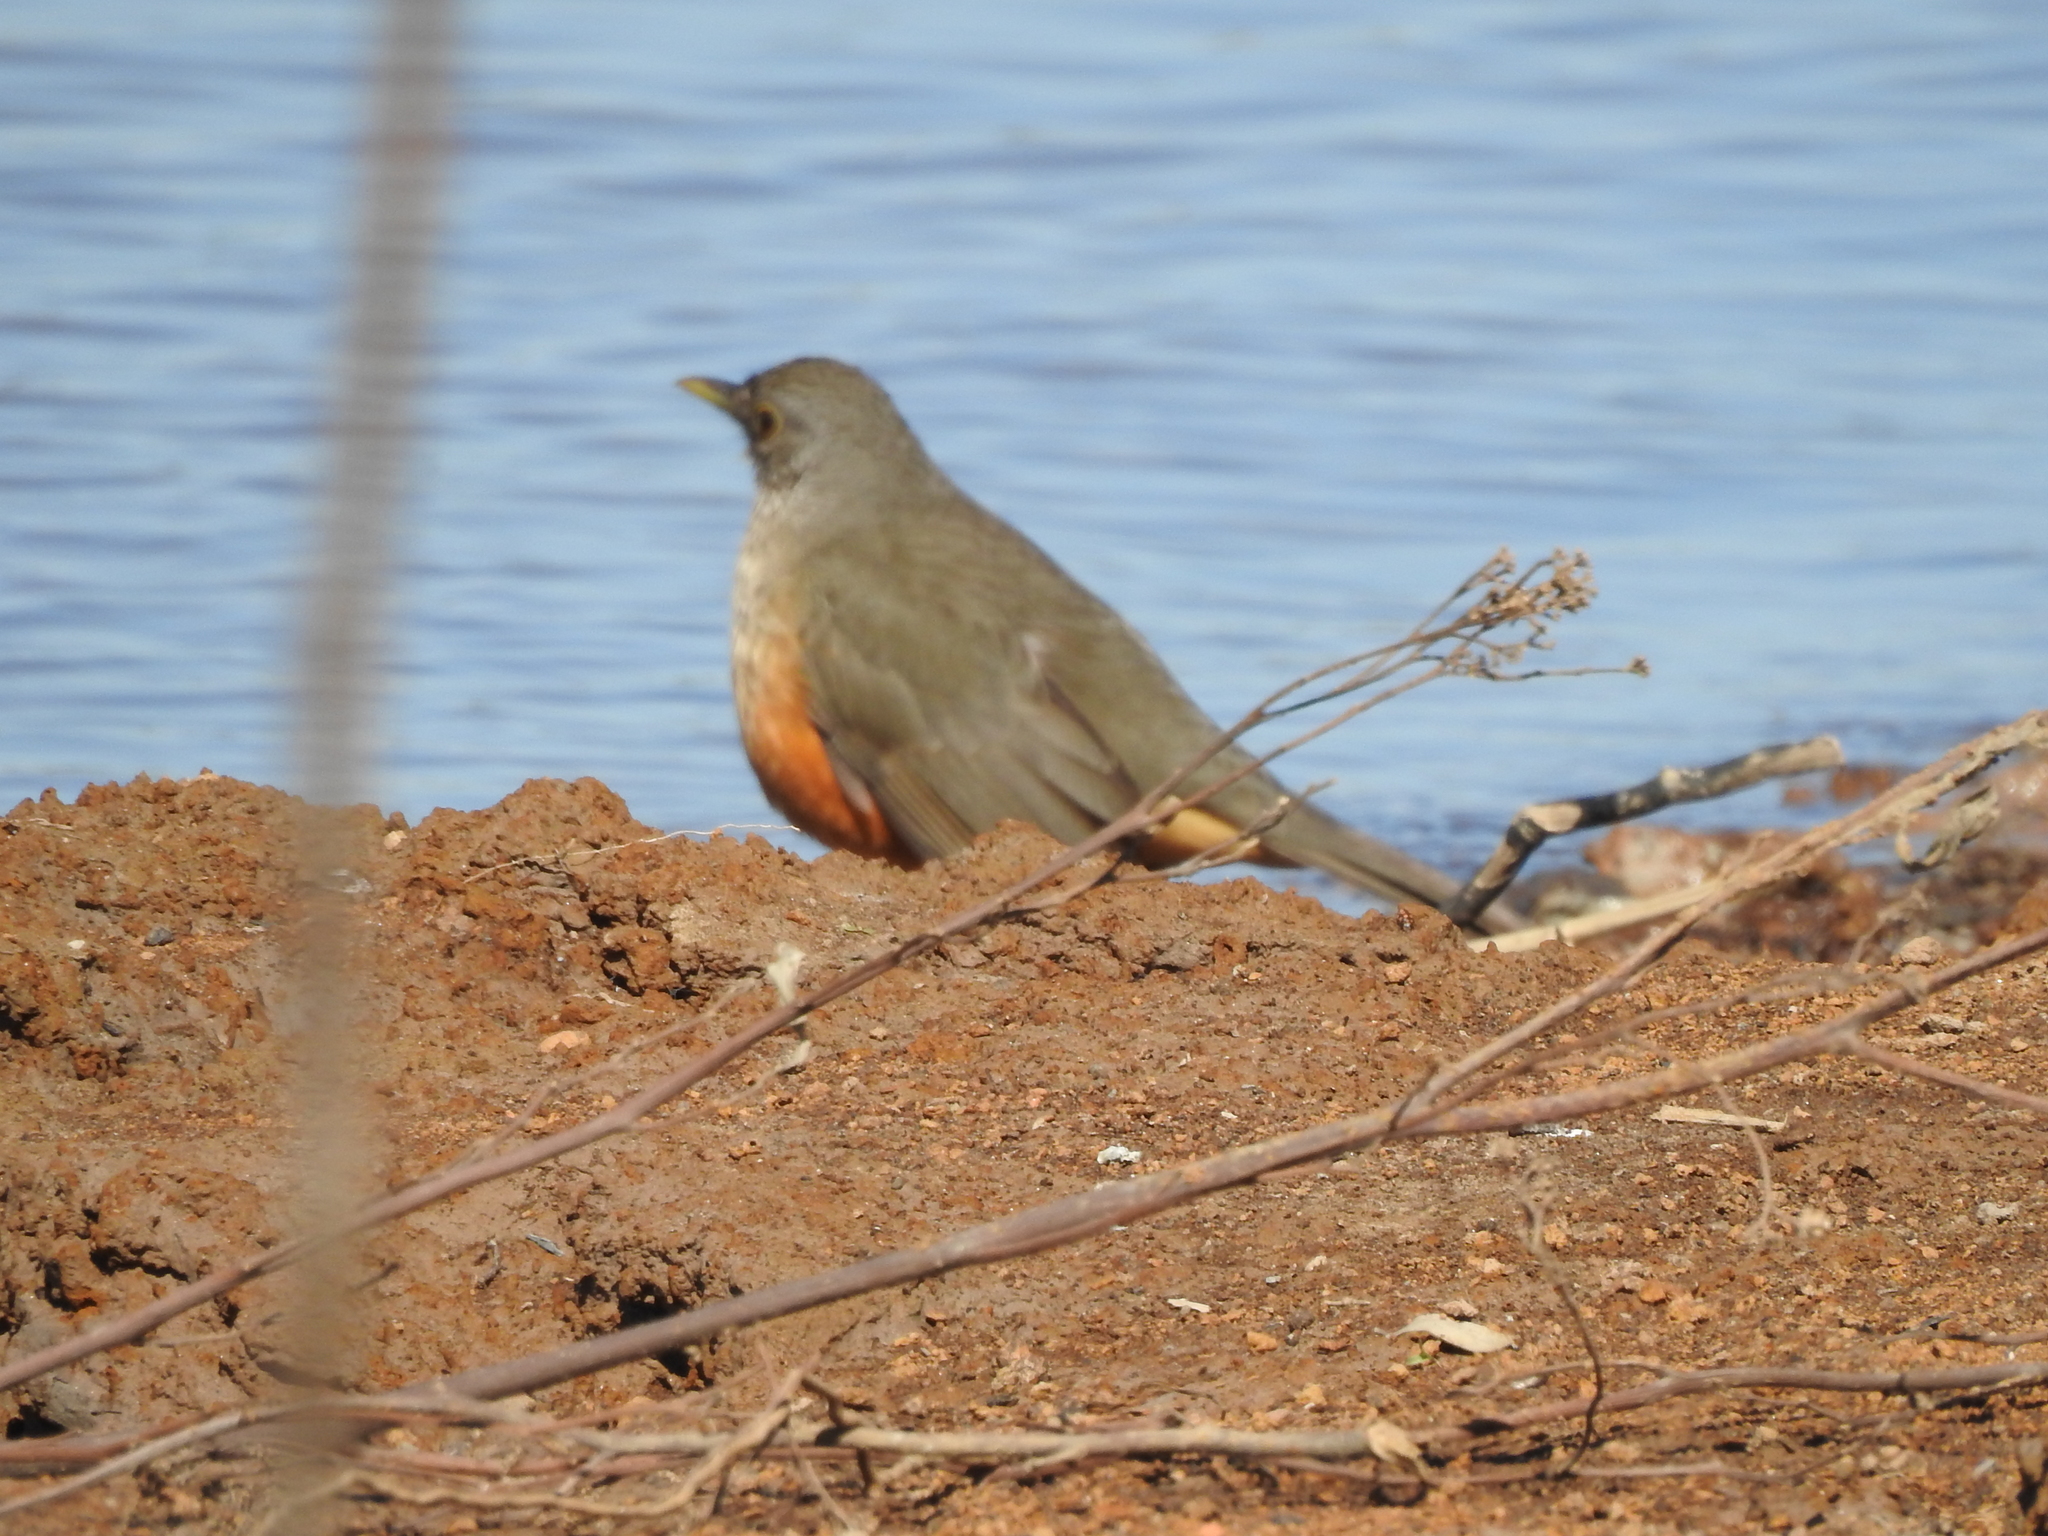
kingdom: Animalia
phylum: Chordata
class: Aves
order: Passeriformes
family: Turdidae
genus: Turdus
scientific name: Turdus rufiventris
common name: Rufous-bellied thrush
